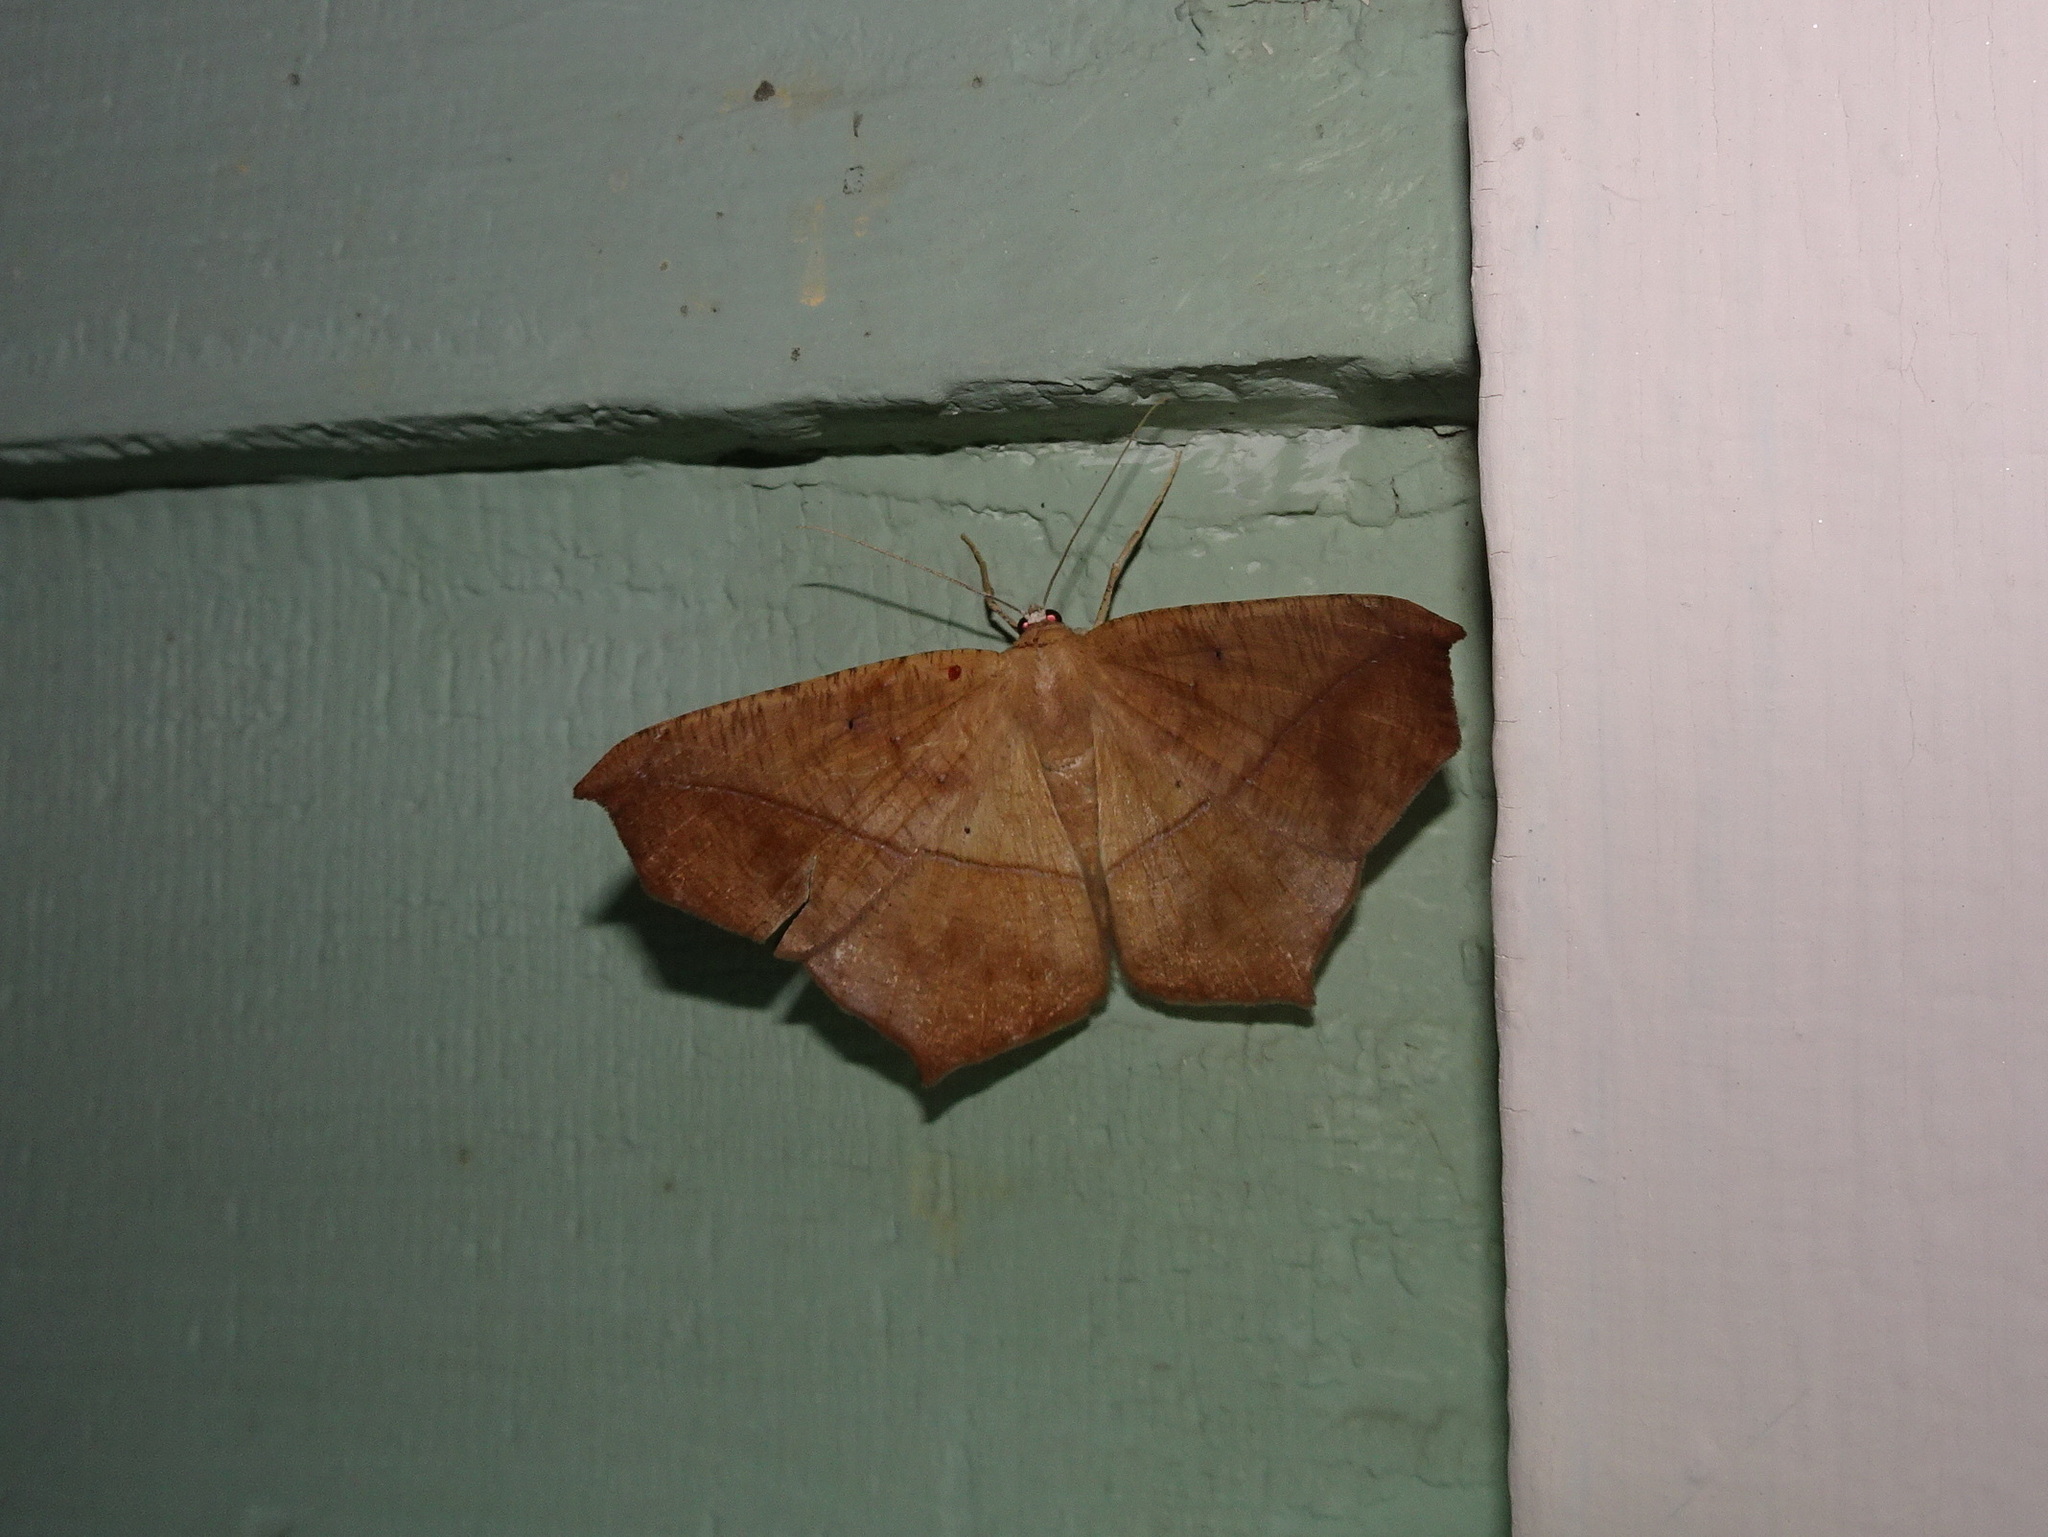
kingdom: Animalia
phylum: Arthropoda
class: Insecta
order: Lepidoptera
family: Geometridae
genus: Prochoerodes
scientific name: Prochoerodes lineola
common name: Large maple spanworm
